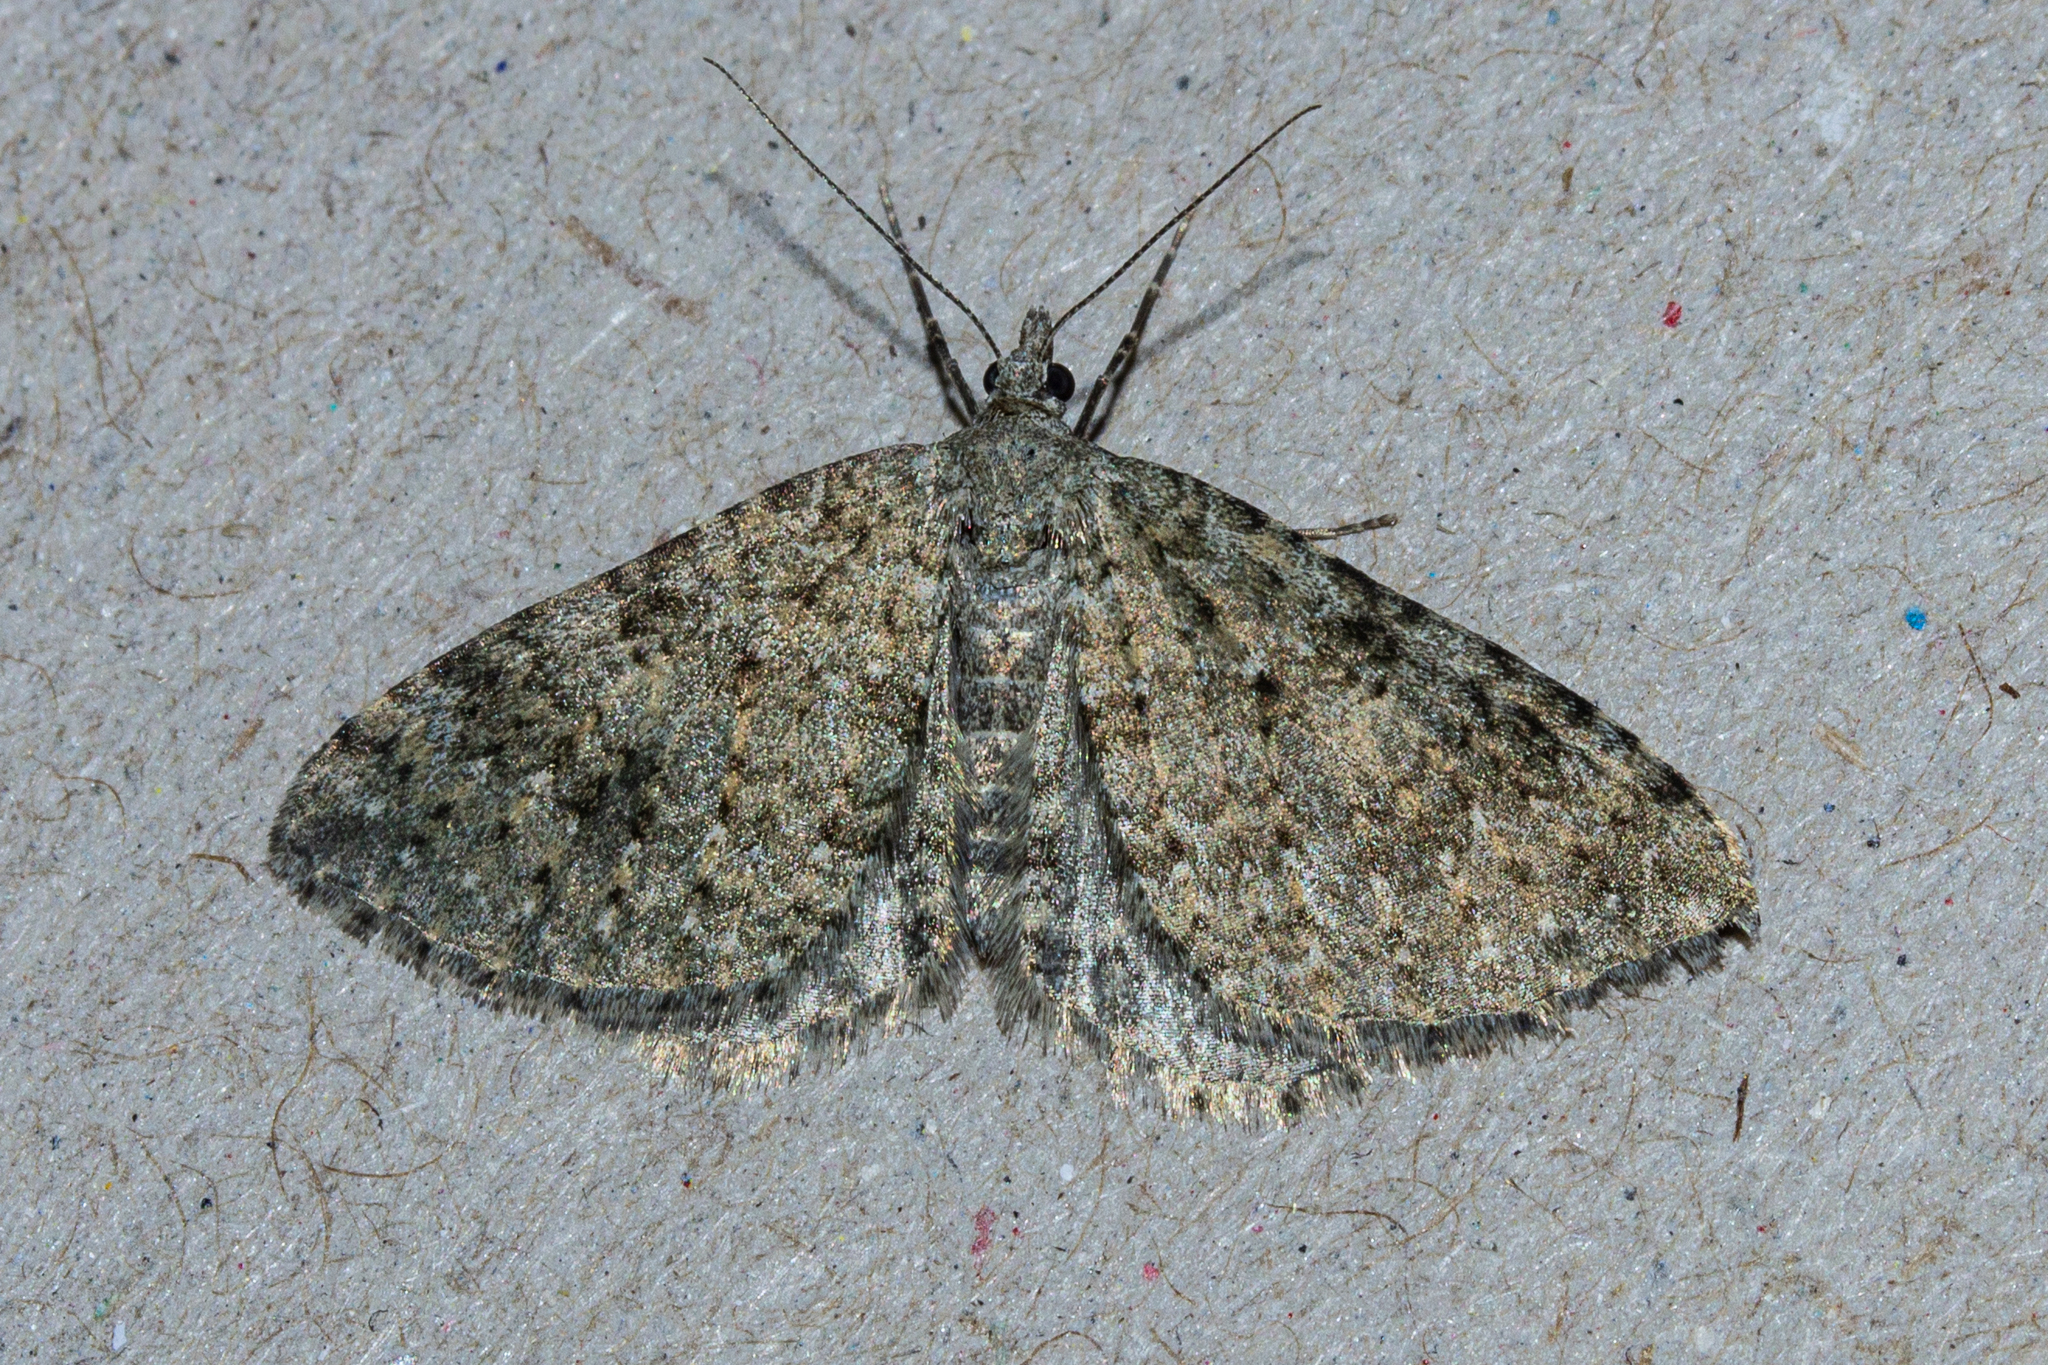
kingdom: Animalia
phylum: Arthropoda
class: Insecta
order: Lepidoptera
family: Geometridae
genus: Helastia
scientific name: Helastia corcularia
